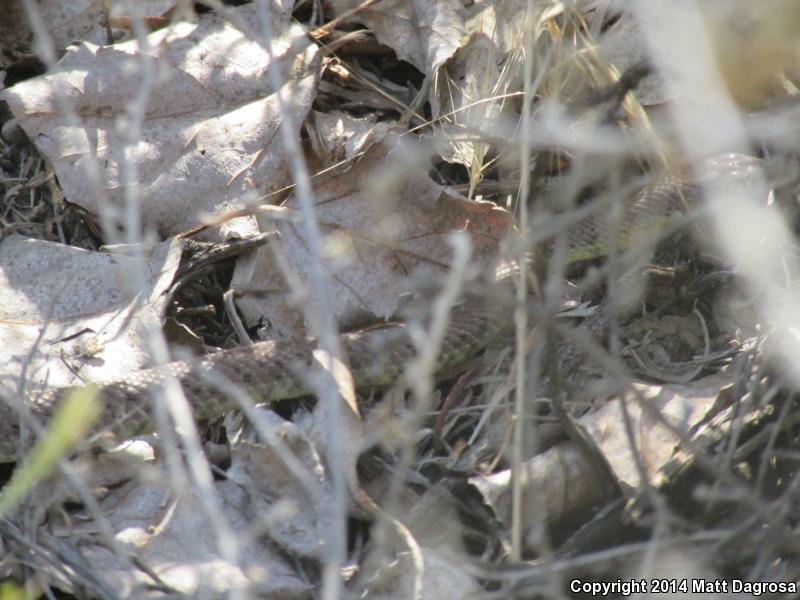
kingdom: Animalia
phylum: Chordata
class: Squamata
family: Colubridae
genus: Coluber
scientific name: Coluber constrictor
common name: Eastern racer
